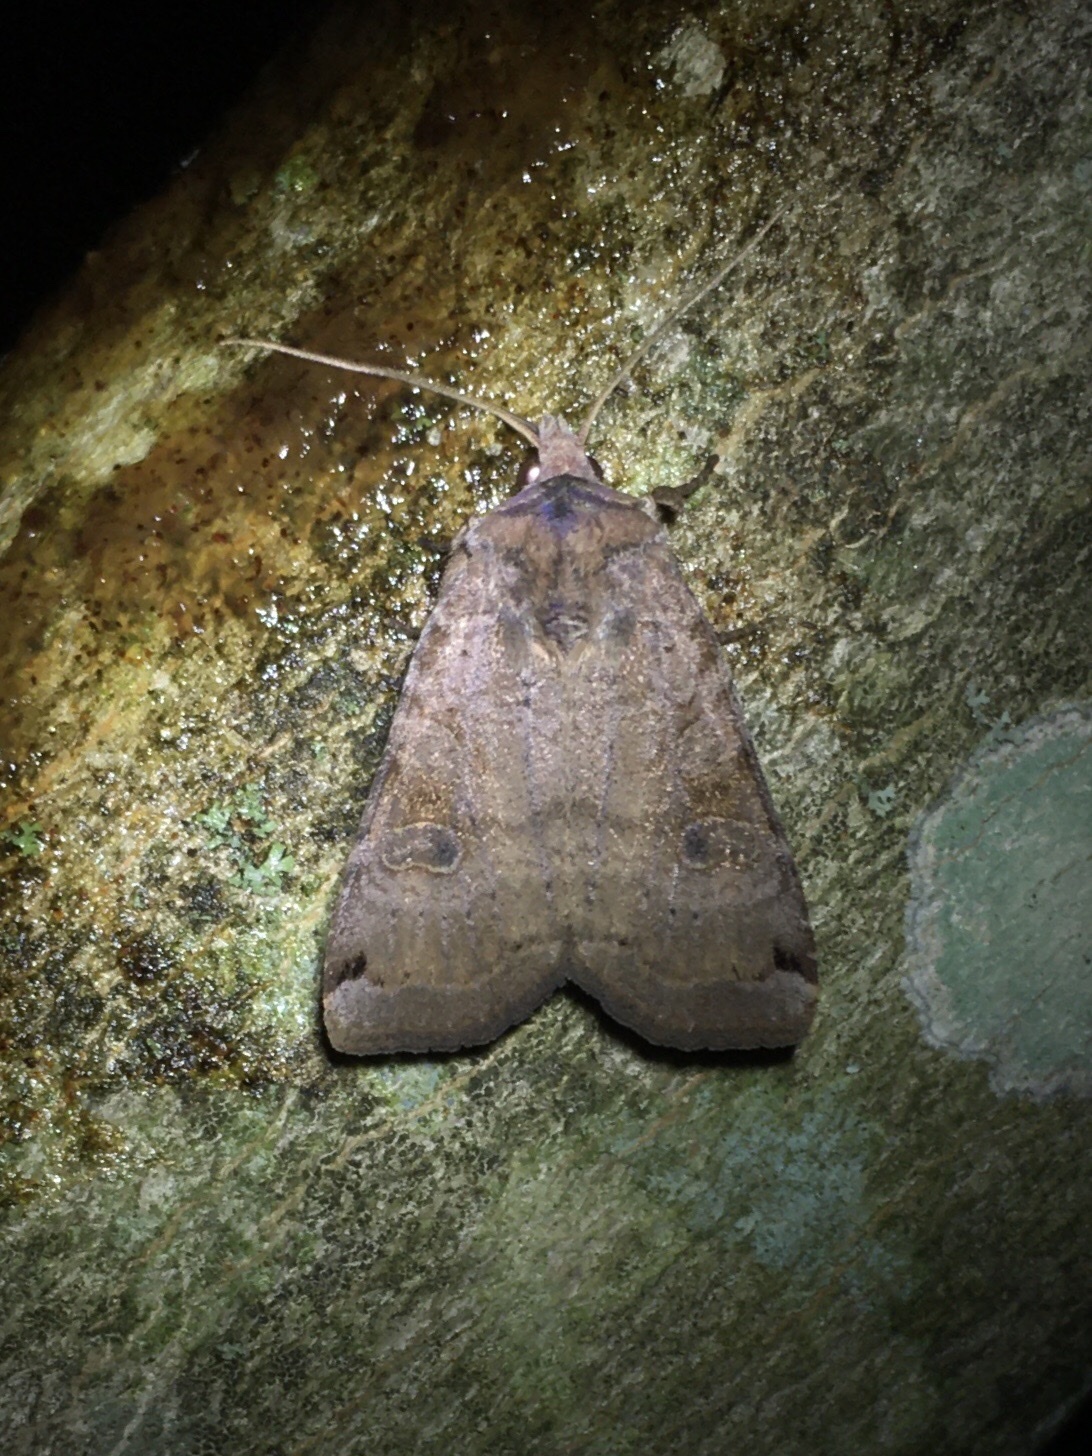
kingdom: Animalia
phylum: Arthropoda
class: Insecta
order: Lepidoptera
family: Noctuidae
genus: Xestia
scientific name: Xestia smithii
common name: Smith's dart
